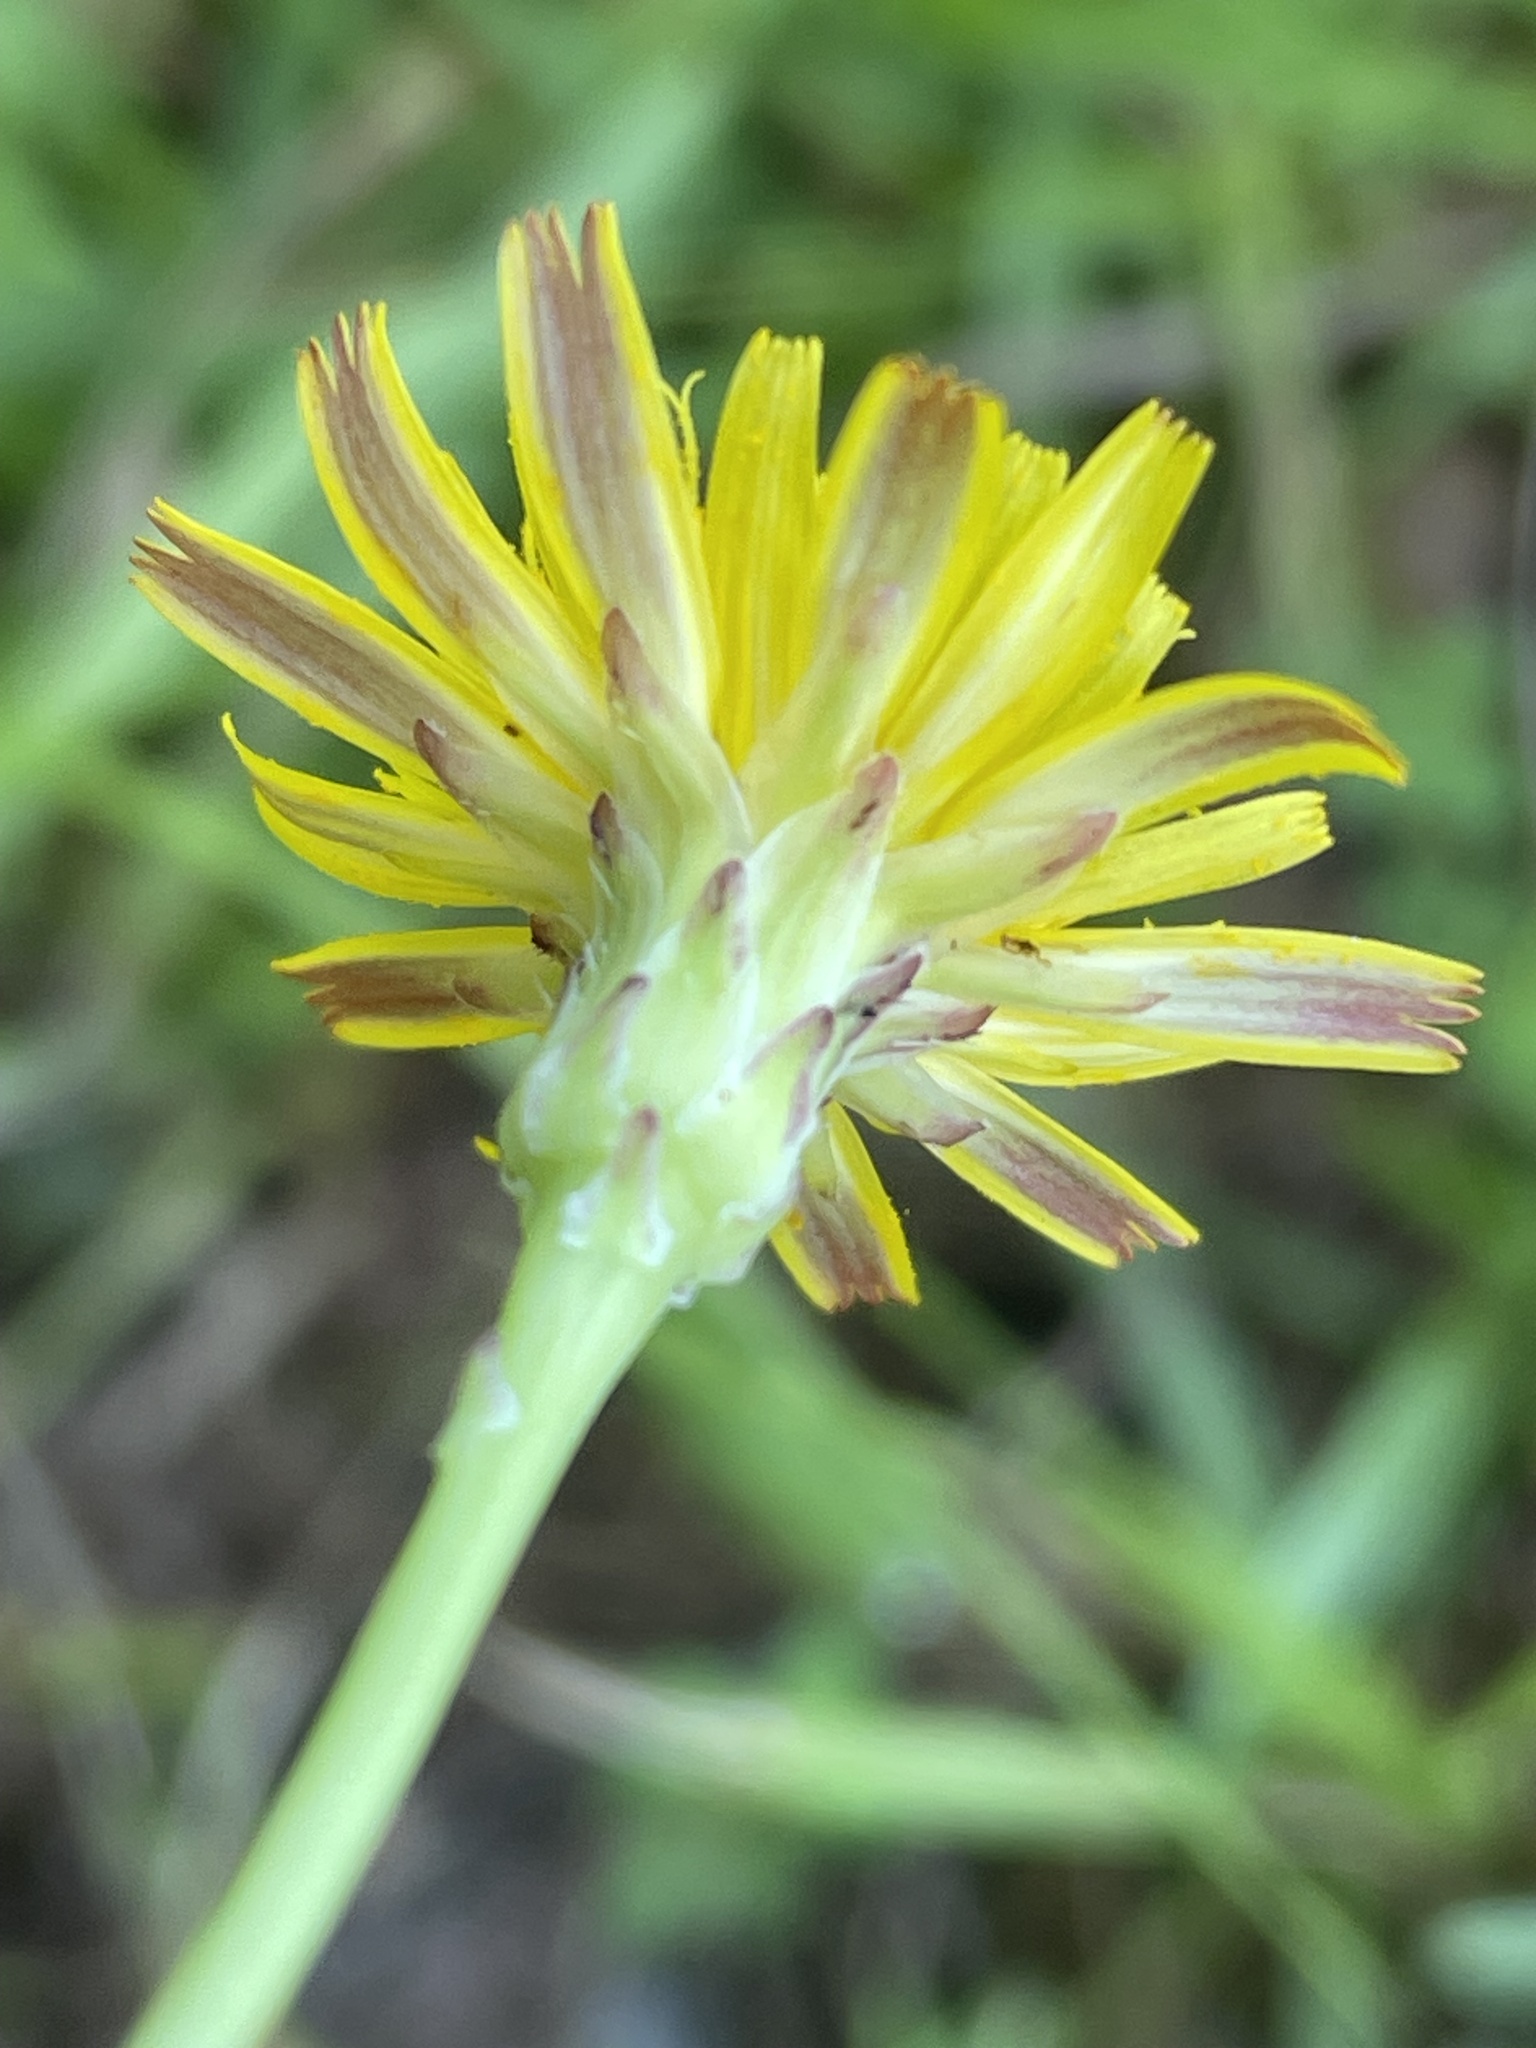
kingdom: Plantae
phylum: Tracheophyta
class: Magnoliopsida
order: Asterales
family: Asteraceae
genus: Hypochaeris
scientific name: Hypochaeris radicata
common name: Flatweed
